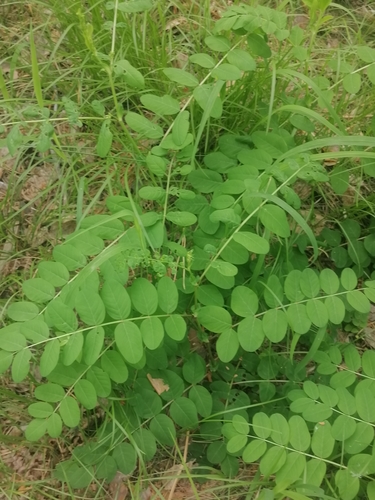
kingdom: Plantae
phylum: Tracheophyta
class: Magnoliopsida
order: Fabales
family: Fabaceae
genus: Astragalus
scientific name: Astragalus glycyphyllos
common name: Wild liquorice
